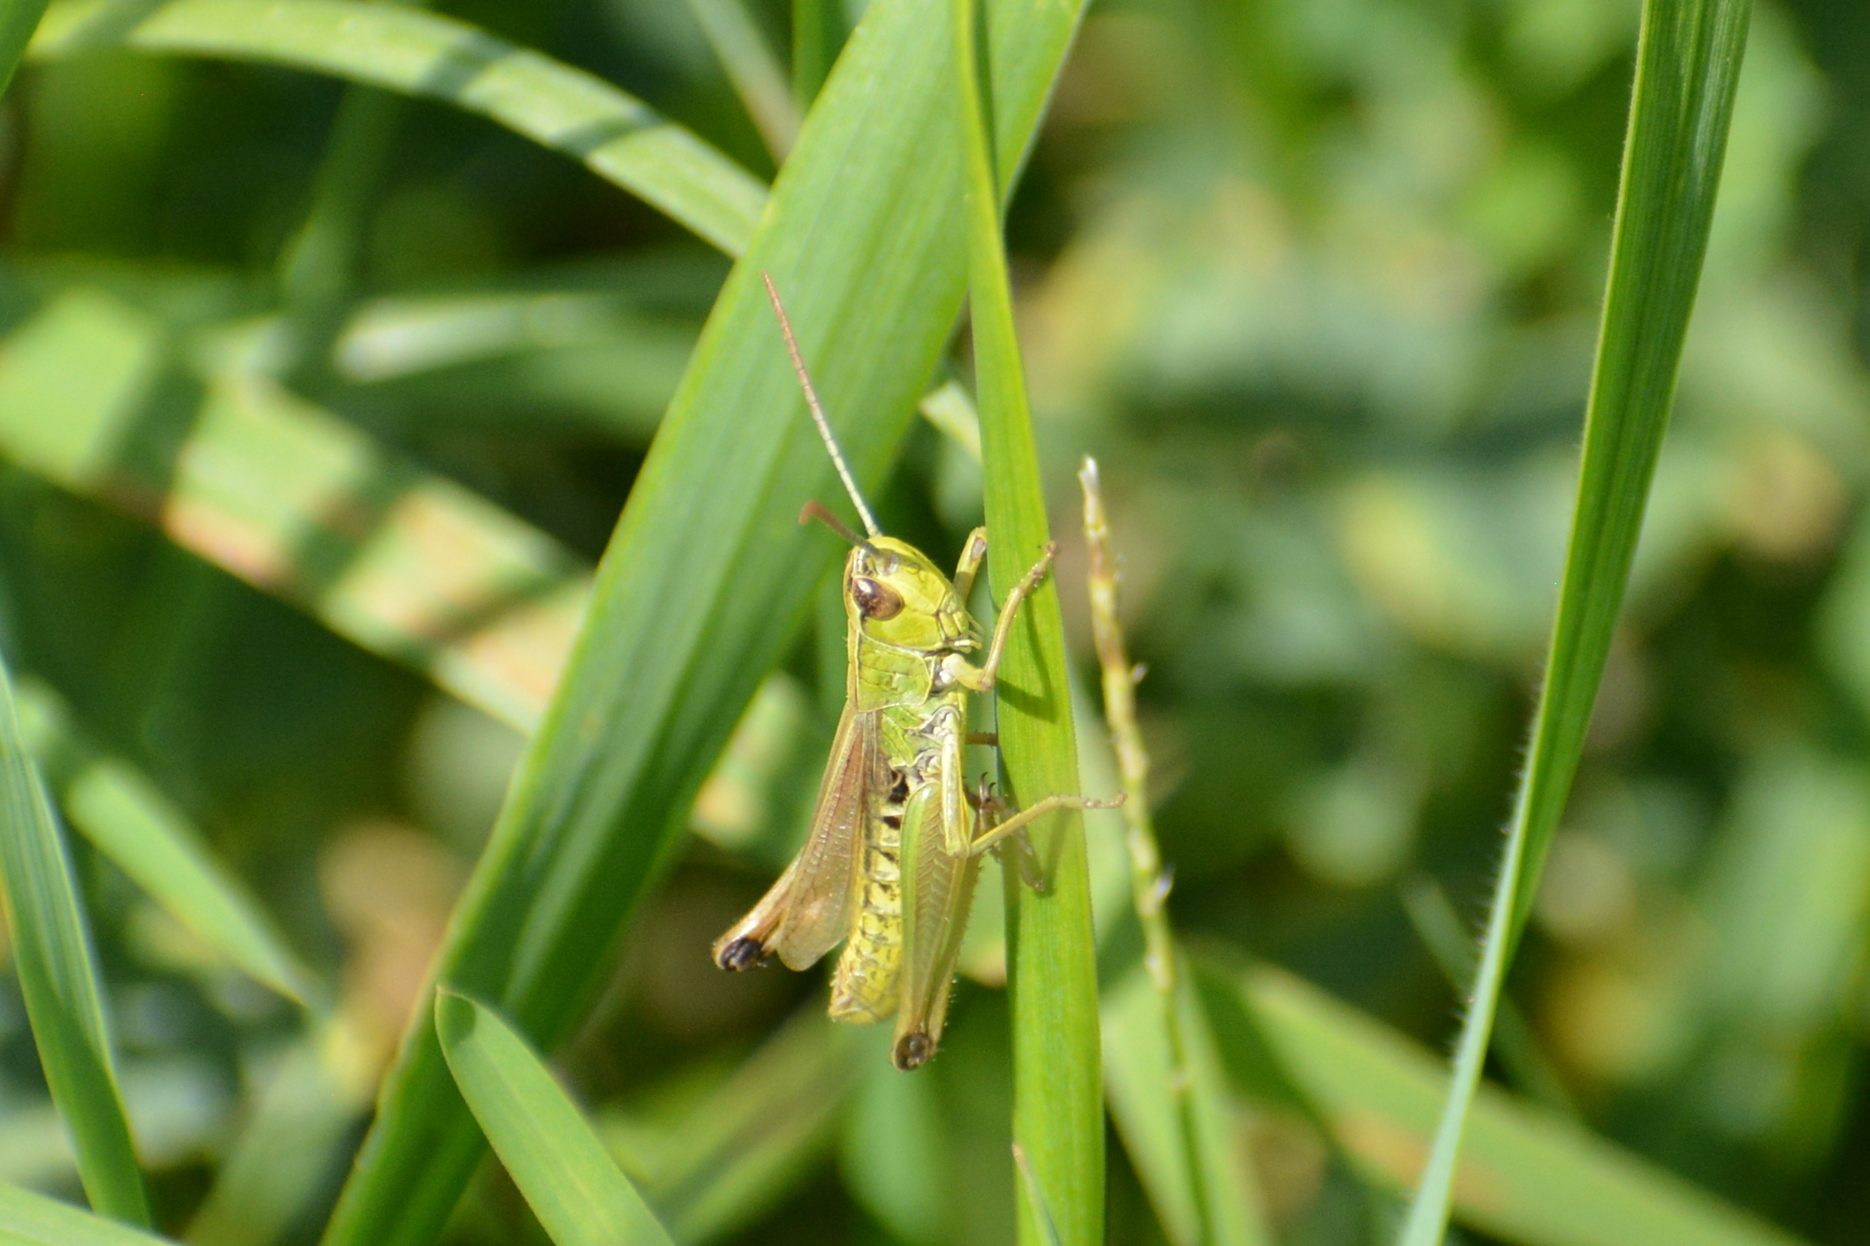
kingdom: Animalia
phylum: Arthropoda
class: Insecta
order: Orthoptera
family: Acrididae
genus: Pseudochorthippus
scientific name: Pseudochorthippus parallelus
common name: Meadow grasshopper
